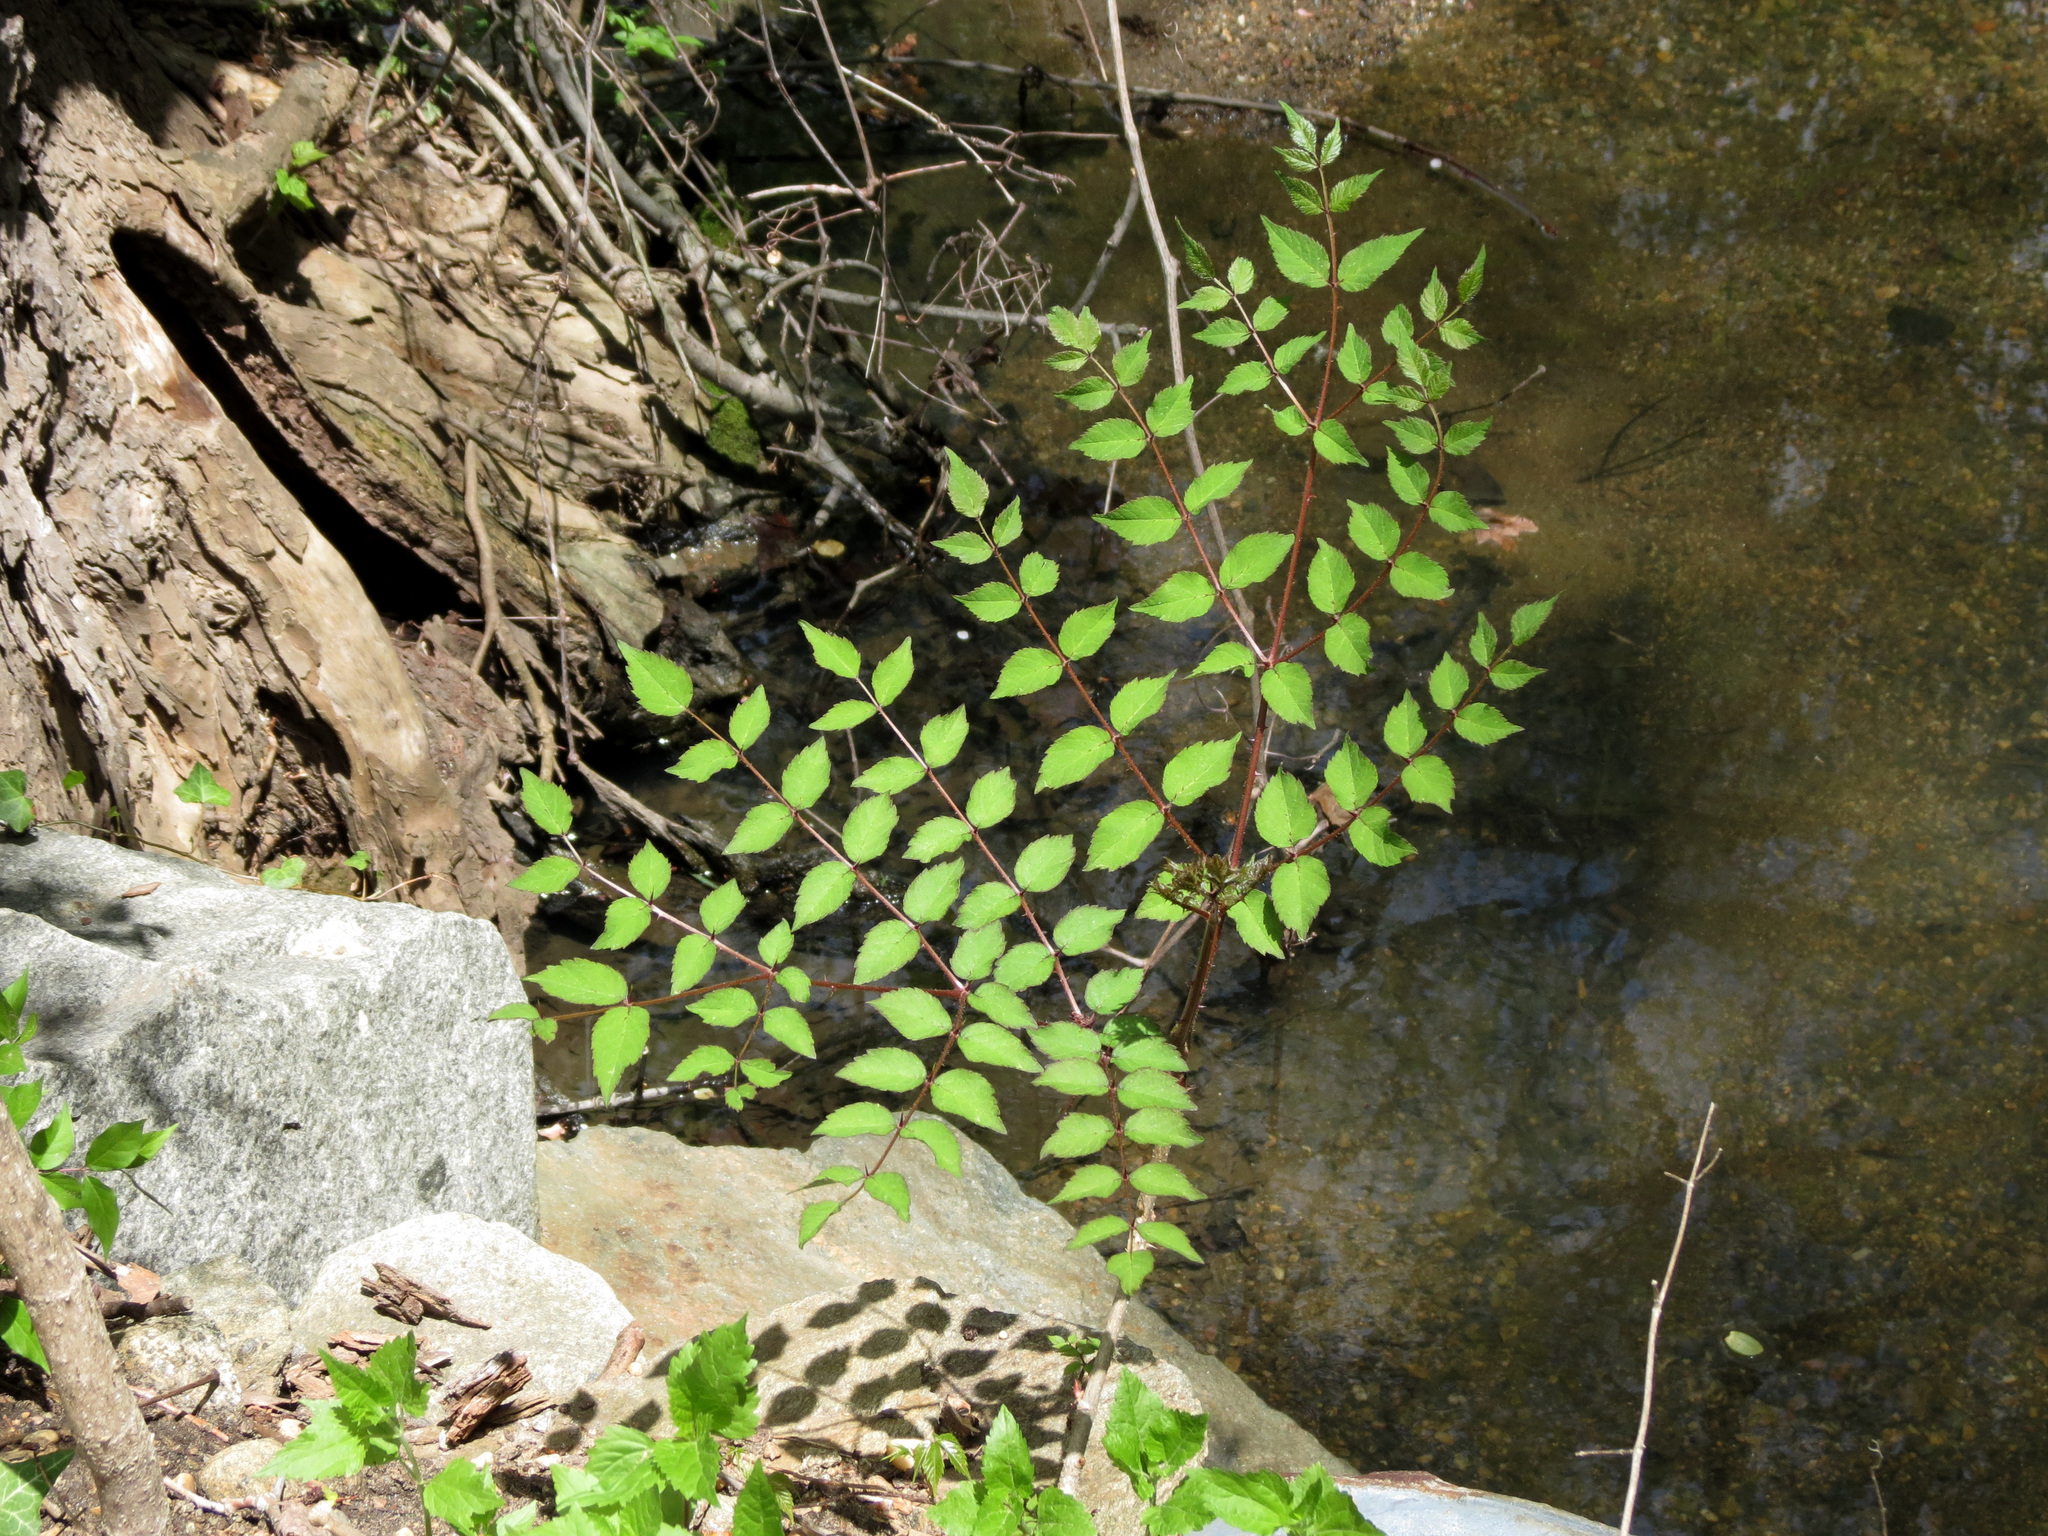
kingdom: Plantae
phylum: Tracheophyta
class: Magnoliopsida
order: Apiales
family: Araliaceae
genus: Aralia
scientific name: Aralia spinosa
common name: Hercules'-club
